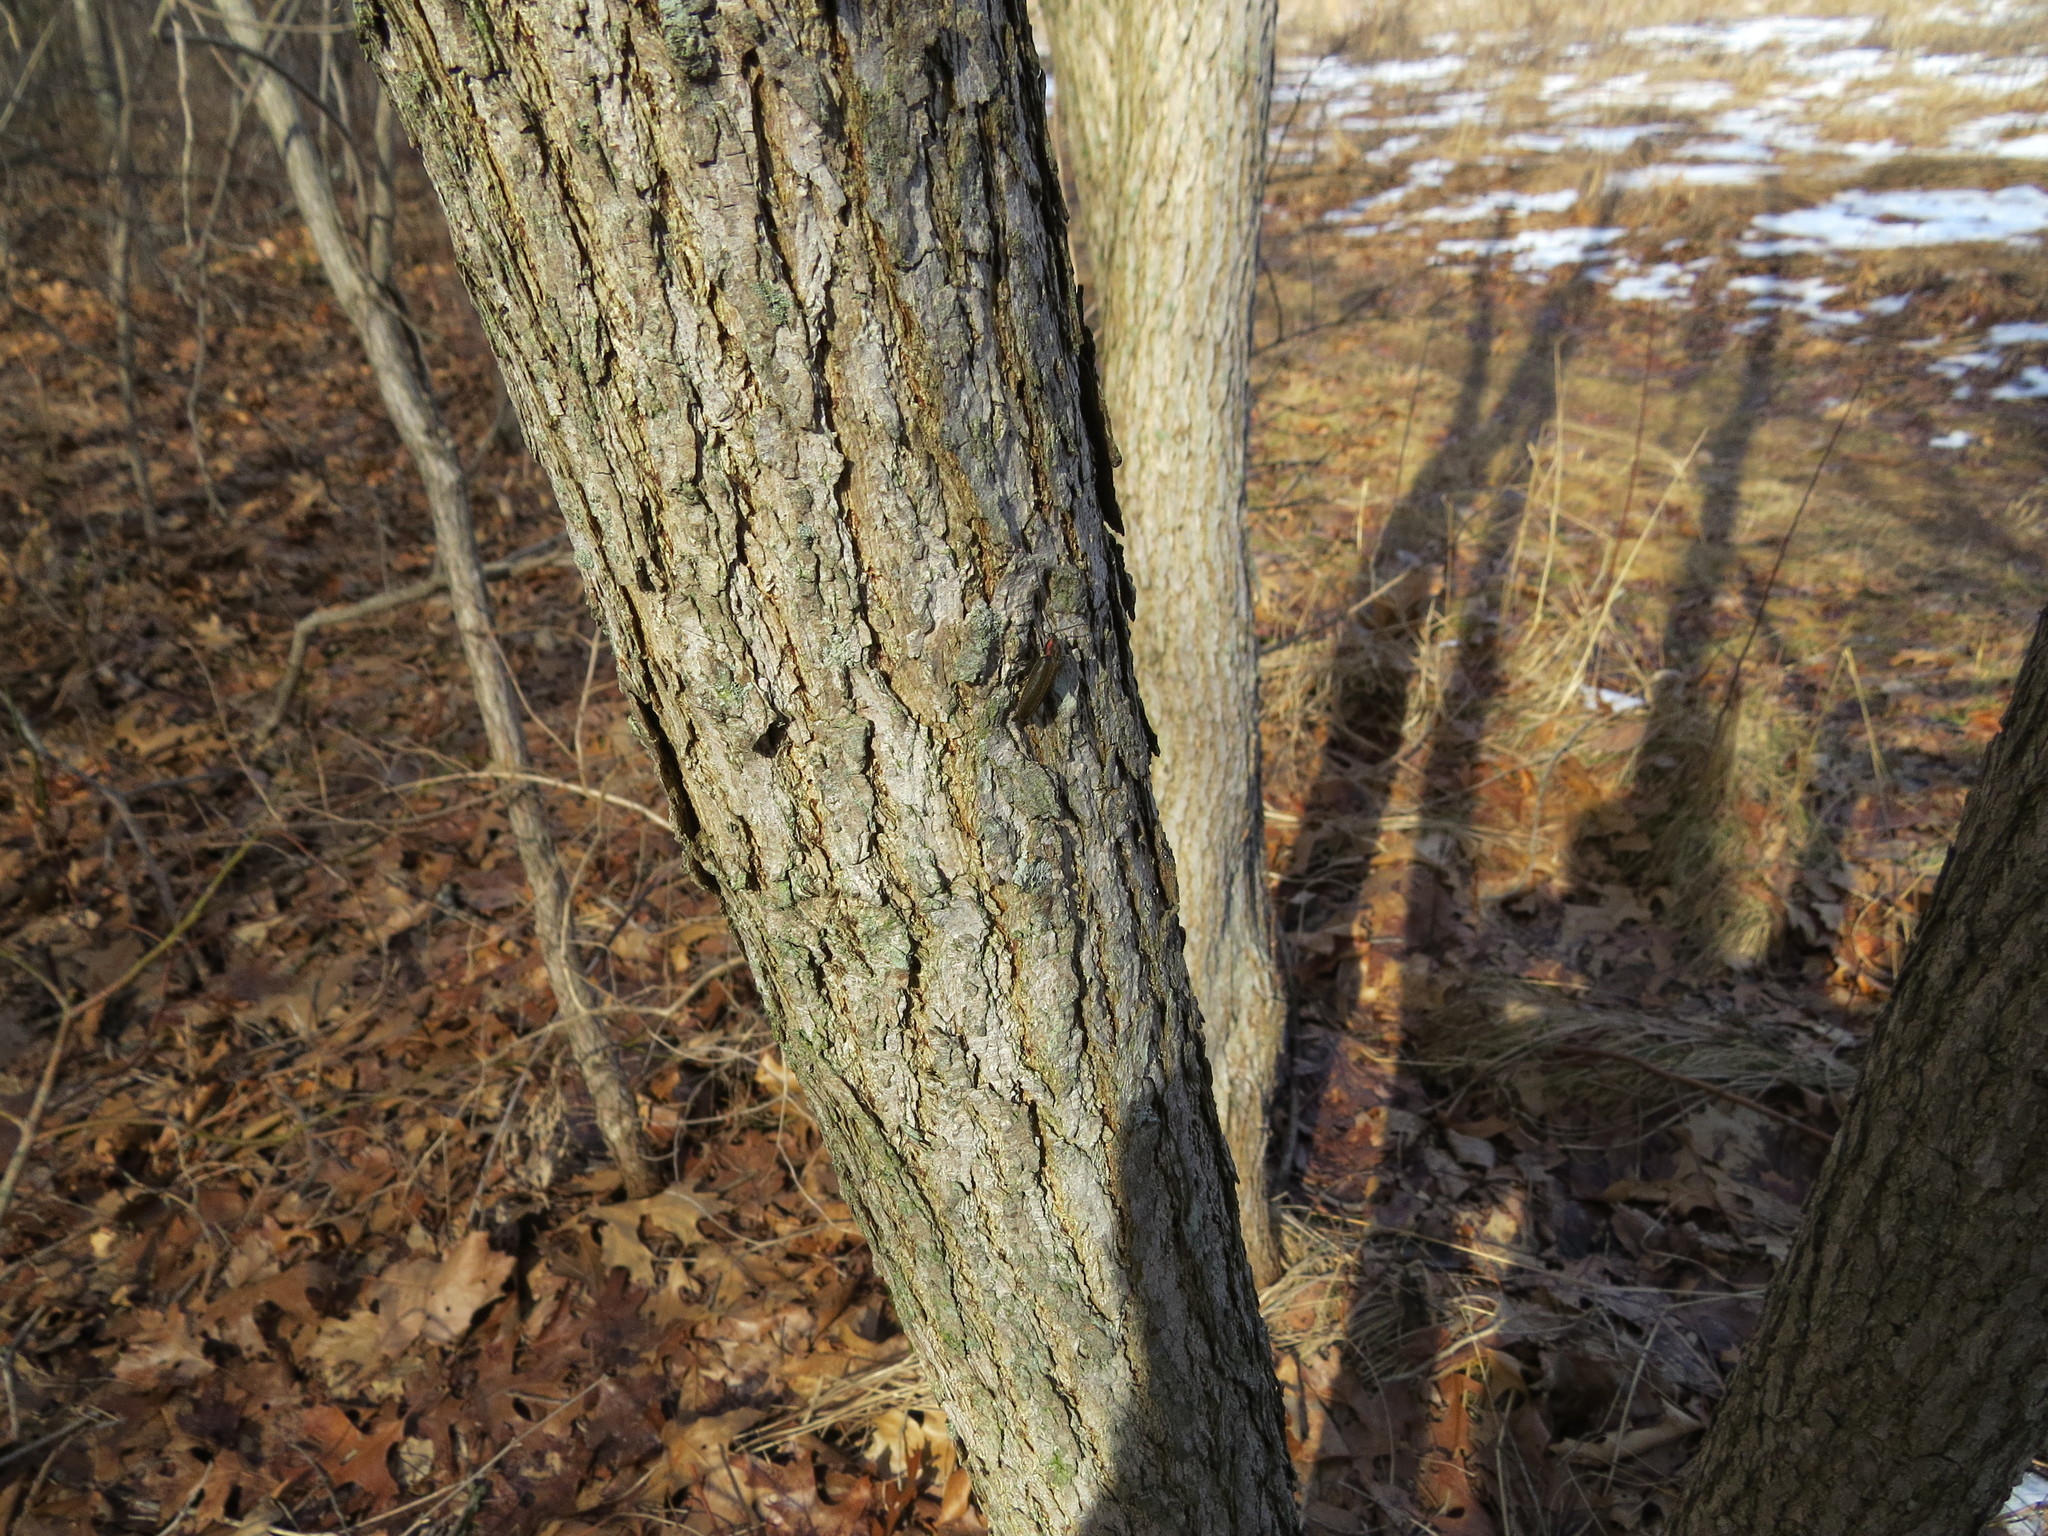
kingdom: Animalia
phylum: Arthropoda
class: Insecta
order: Coleoptera
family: Lampyridae
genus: Photinus
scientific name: Photinus corrusca
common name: Winter firefly
